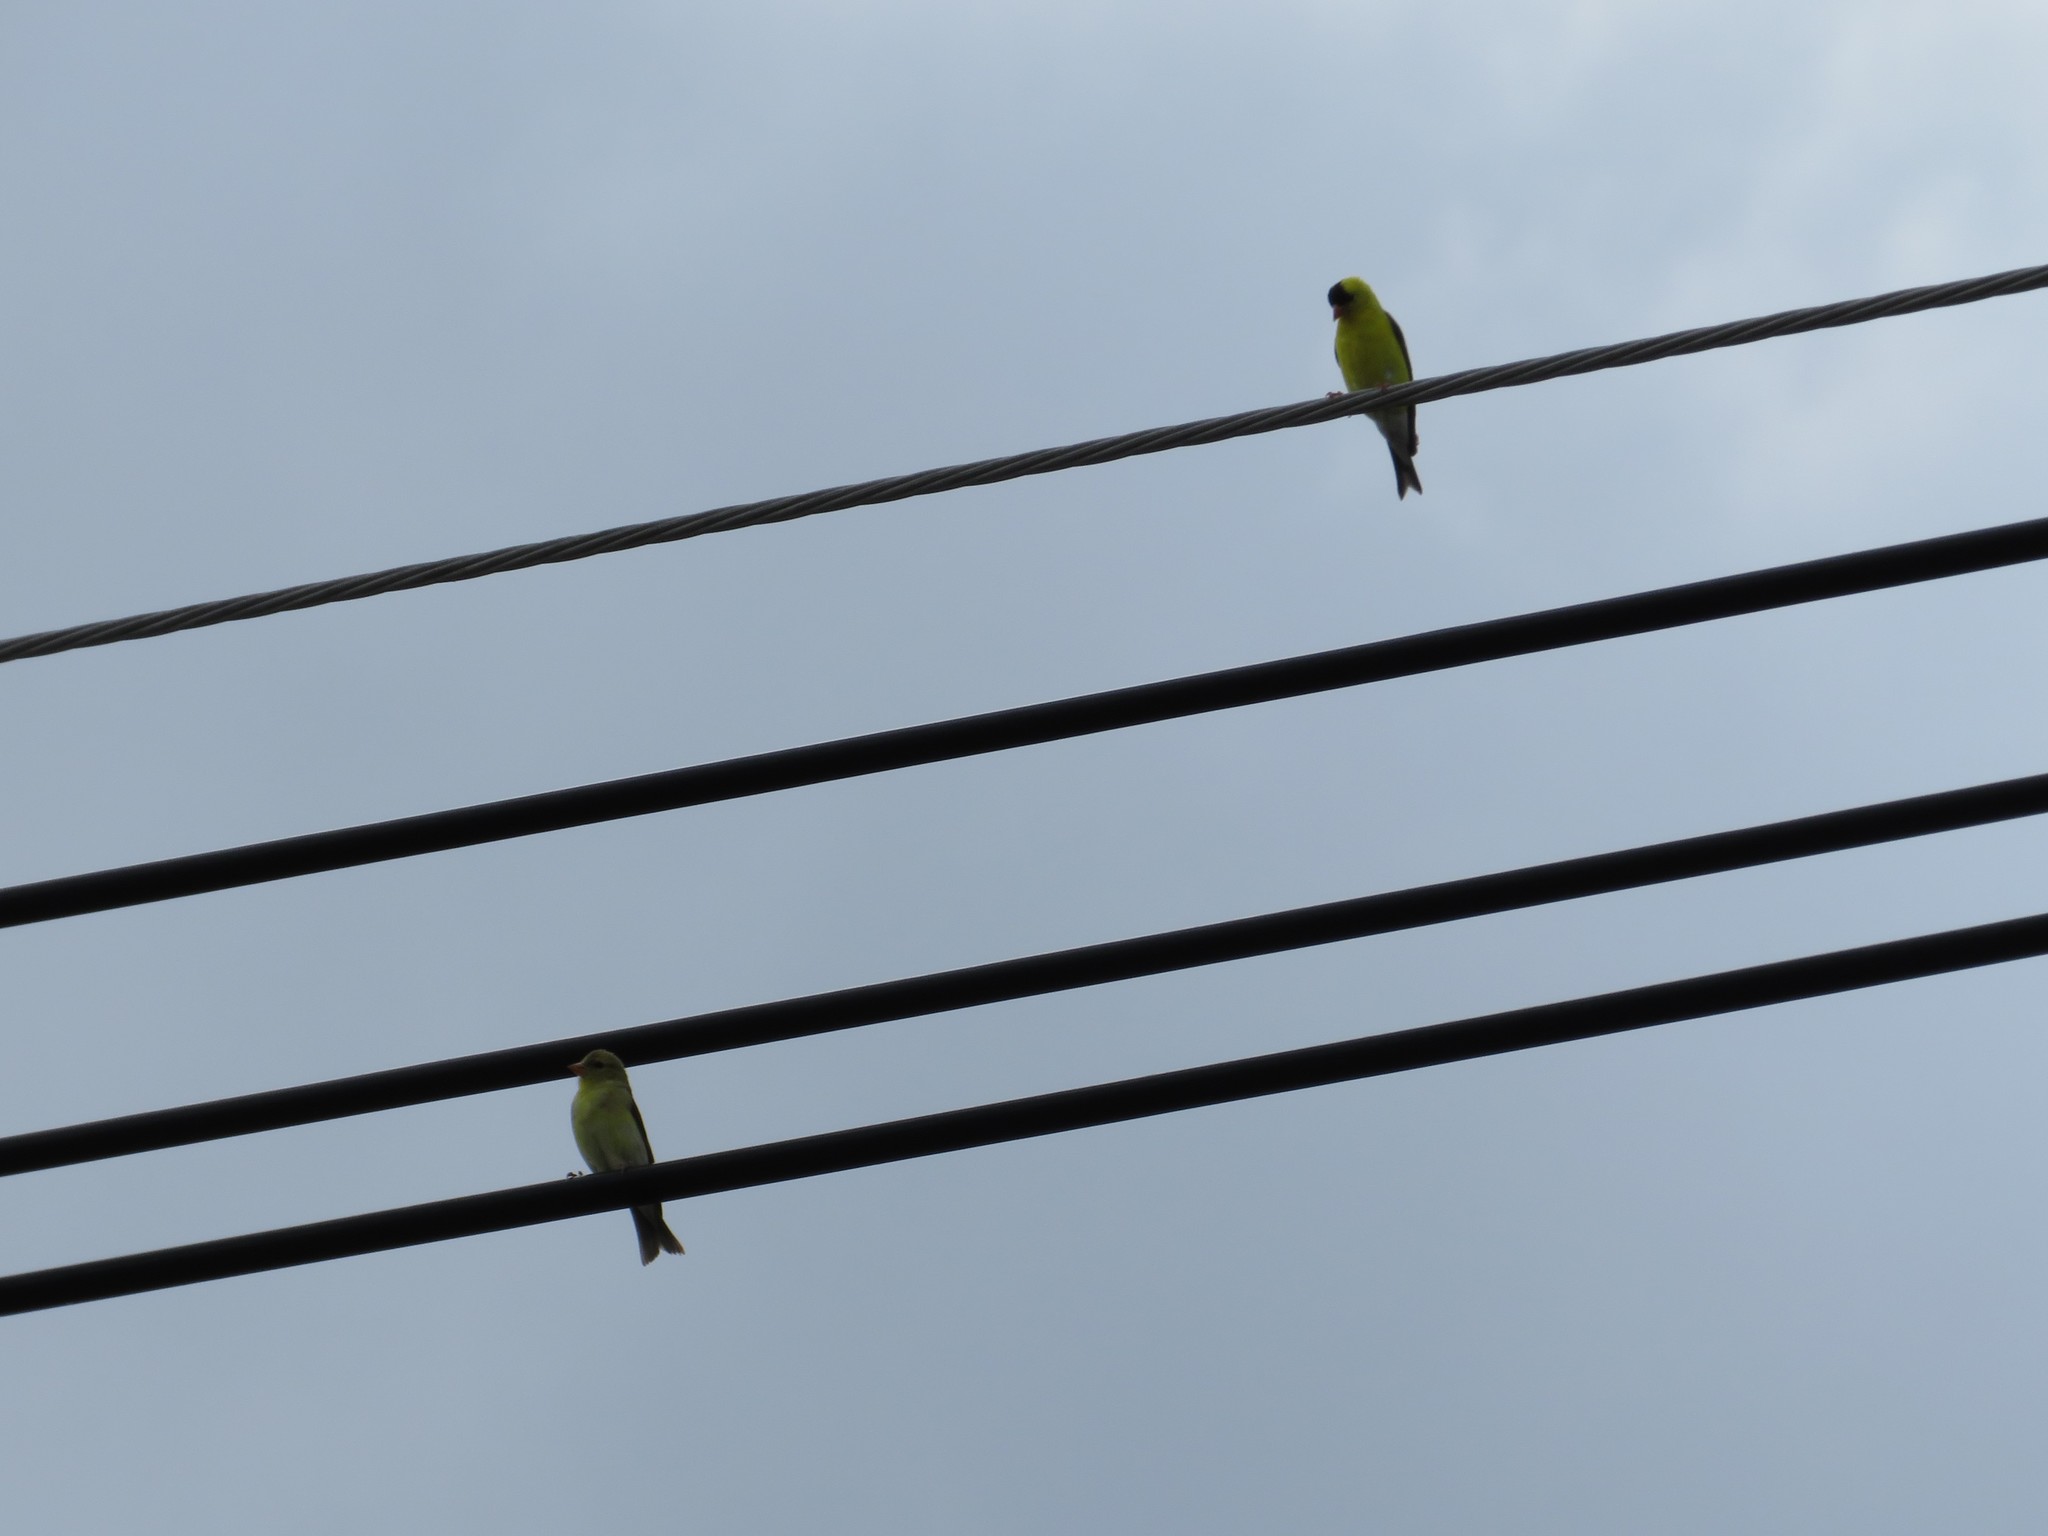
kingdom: Animalia
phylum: Chordata
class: Aves
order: Passeriformes
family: Fringillidae
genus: Spinus
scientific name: Spinus tristis
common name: American goldfinch
